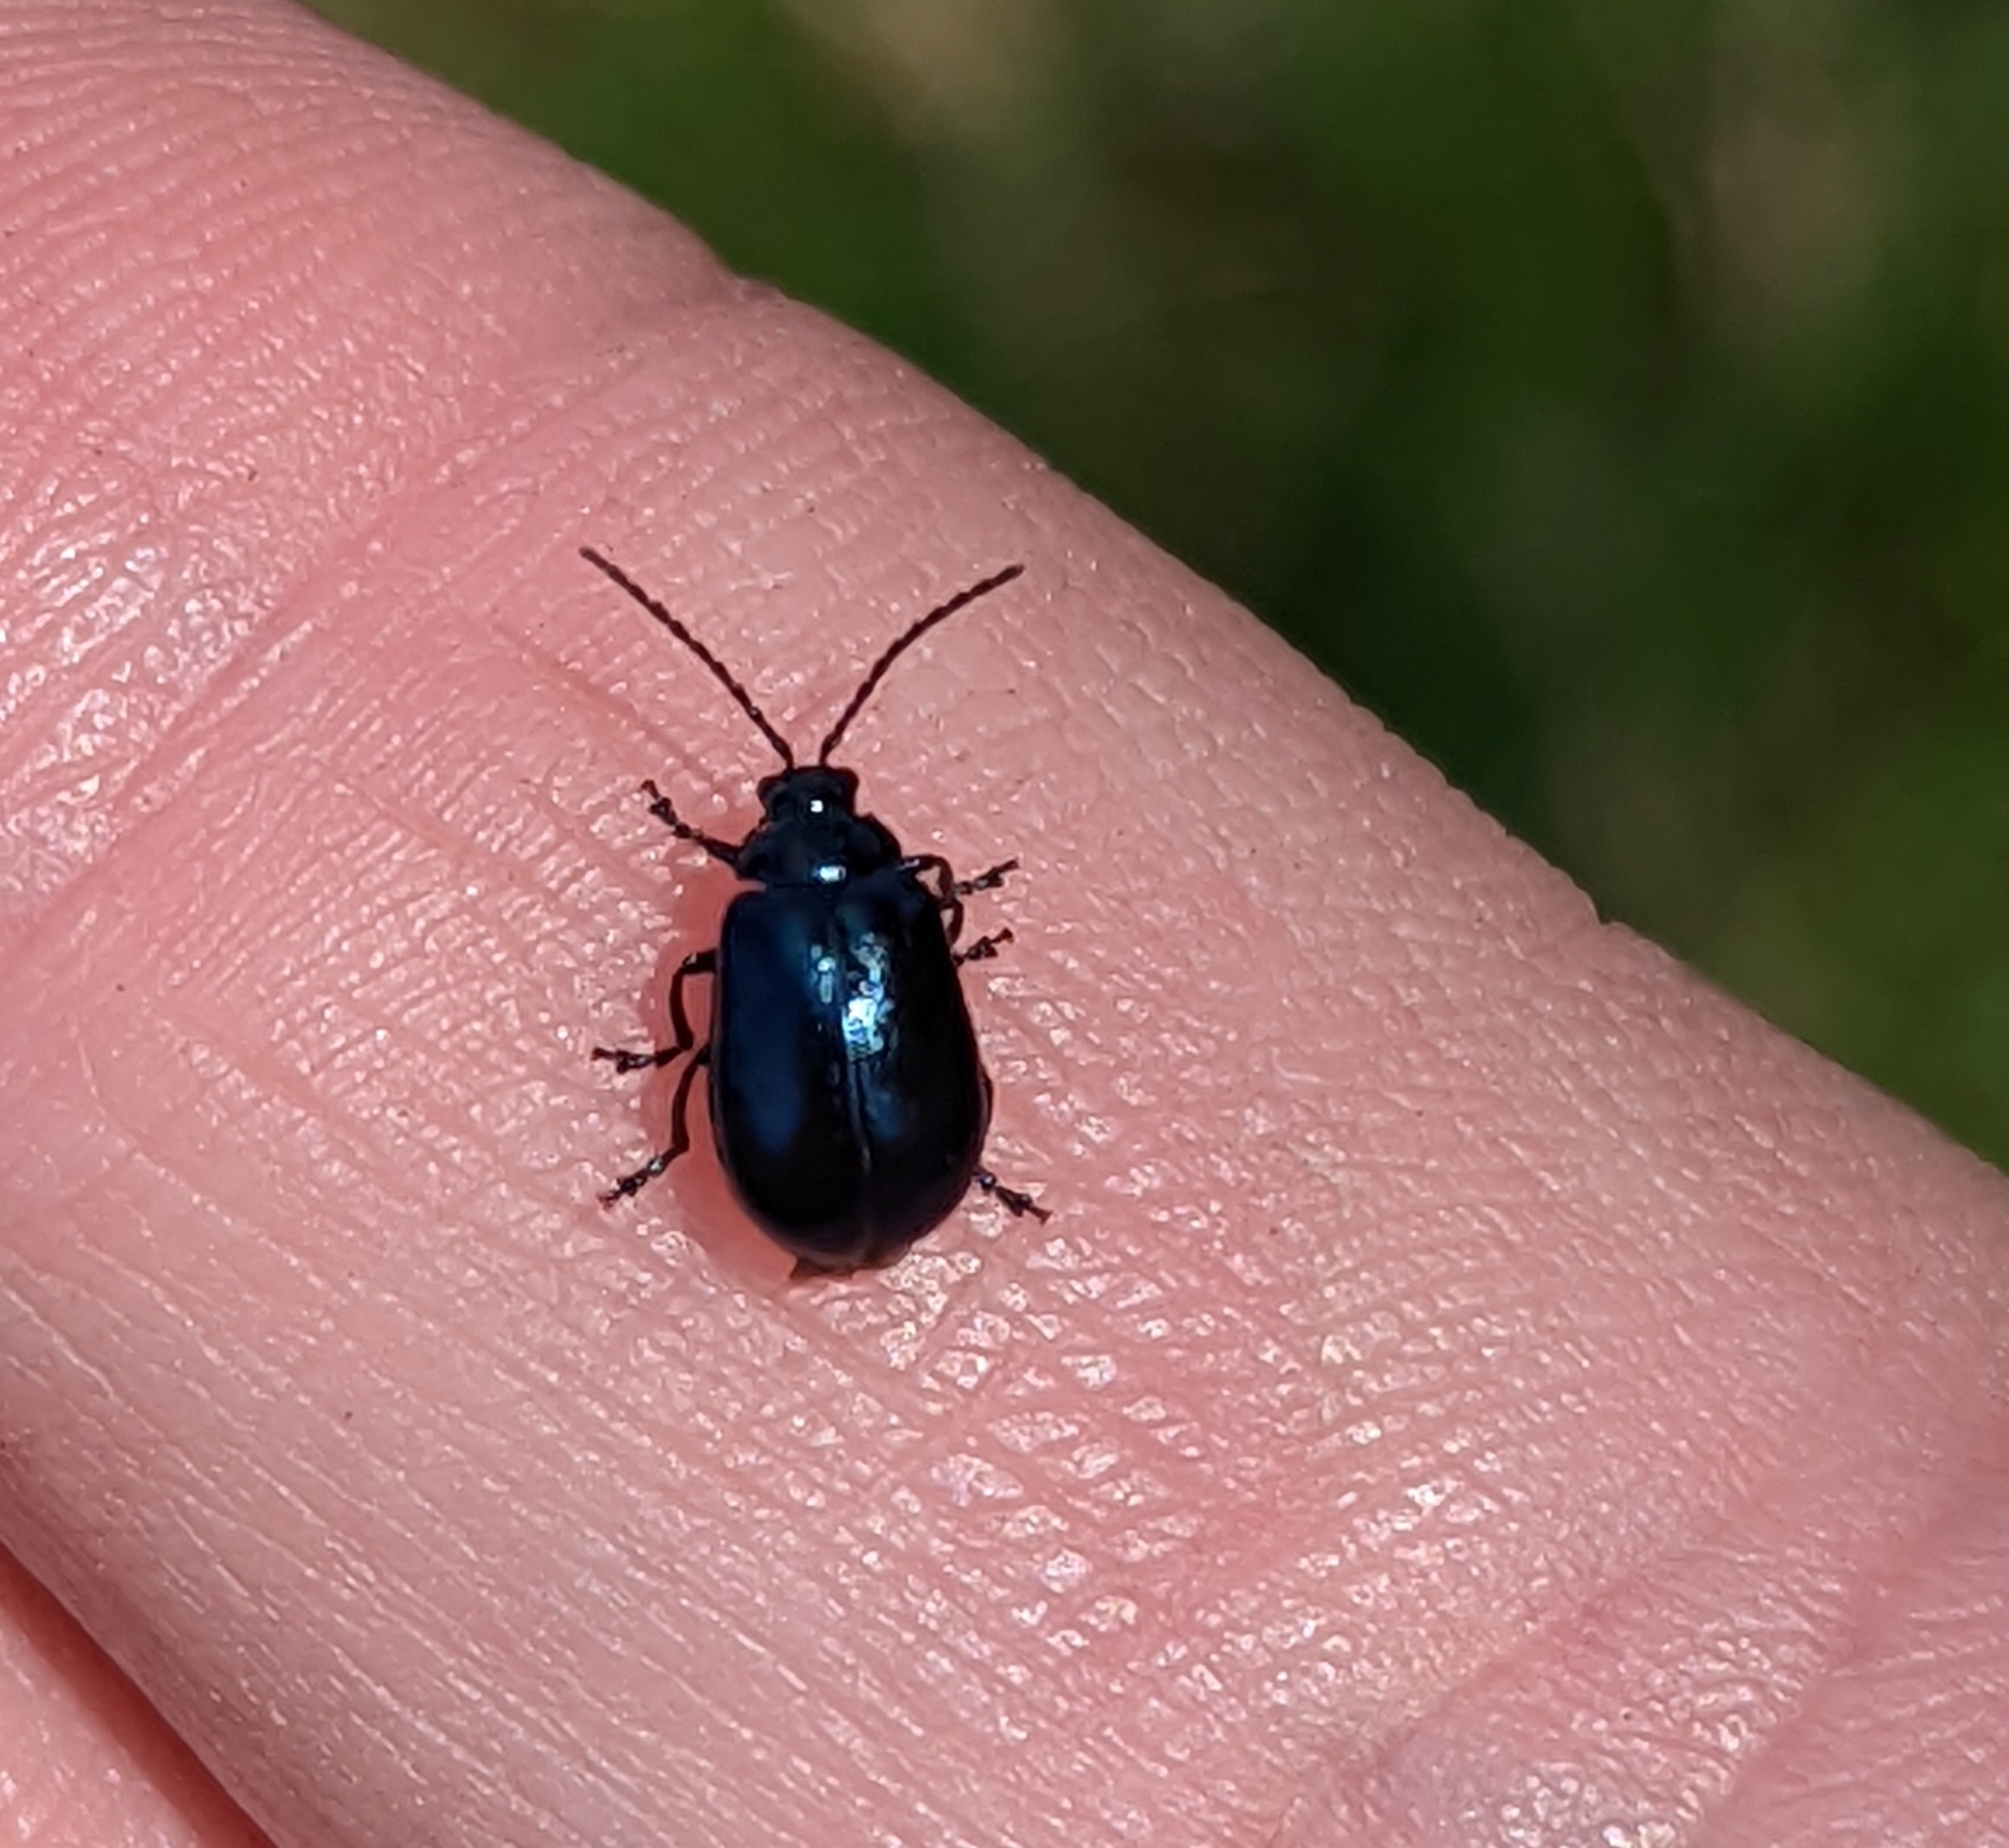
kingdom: Animalia
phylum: Arthropoda
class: Insecta
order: Coleoptera
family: Chrysomelidae
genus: Agelastica
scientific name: Agelastica alni
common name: Alder leaf beetle
